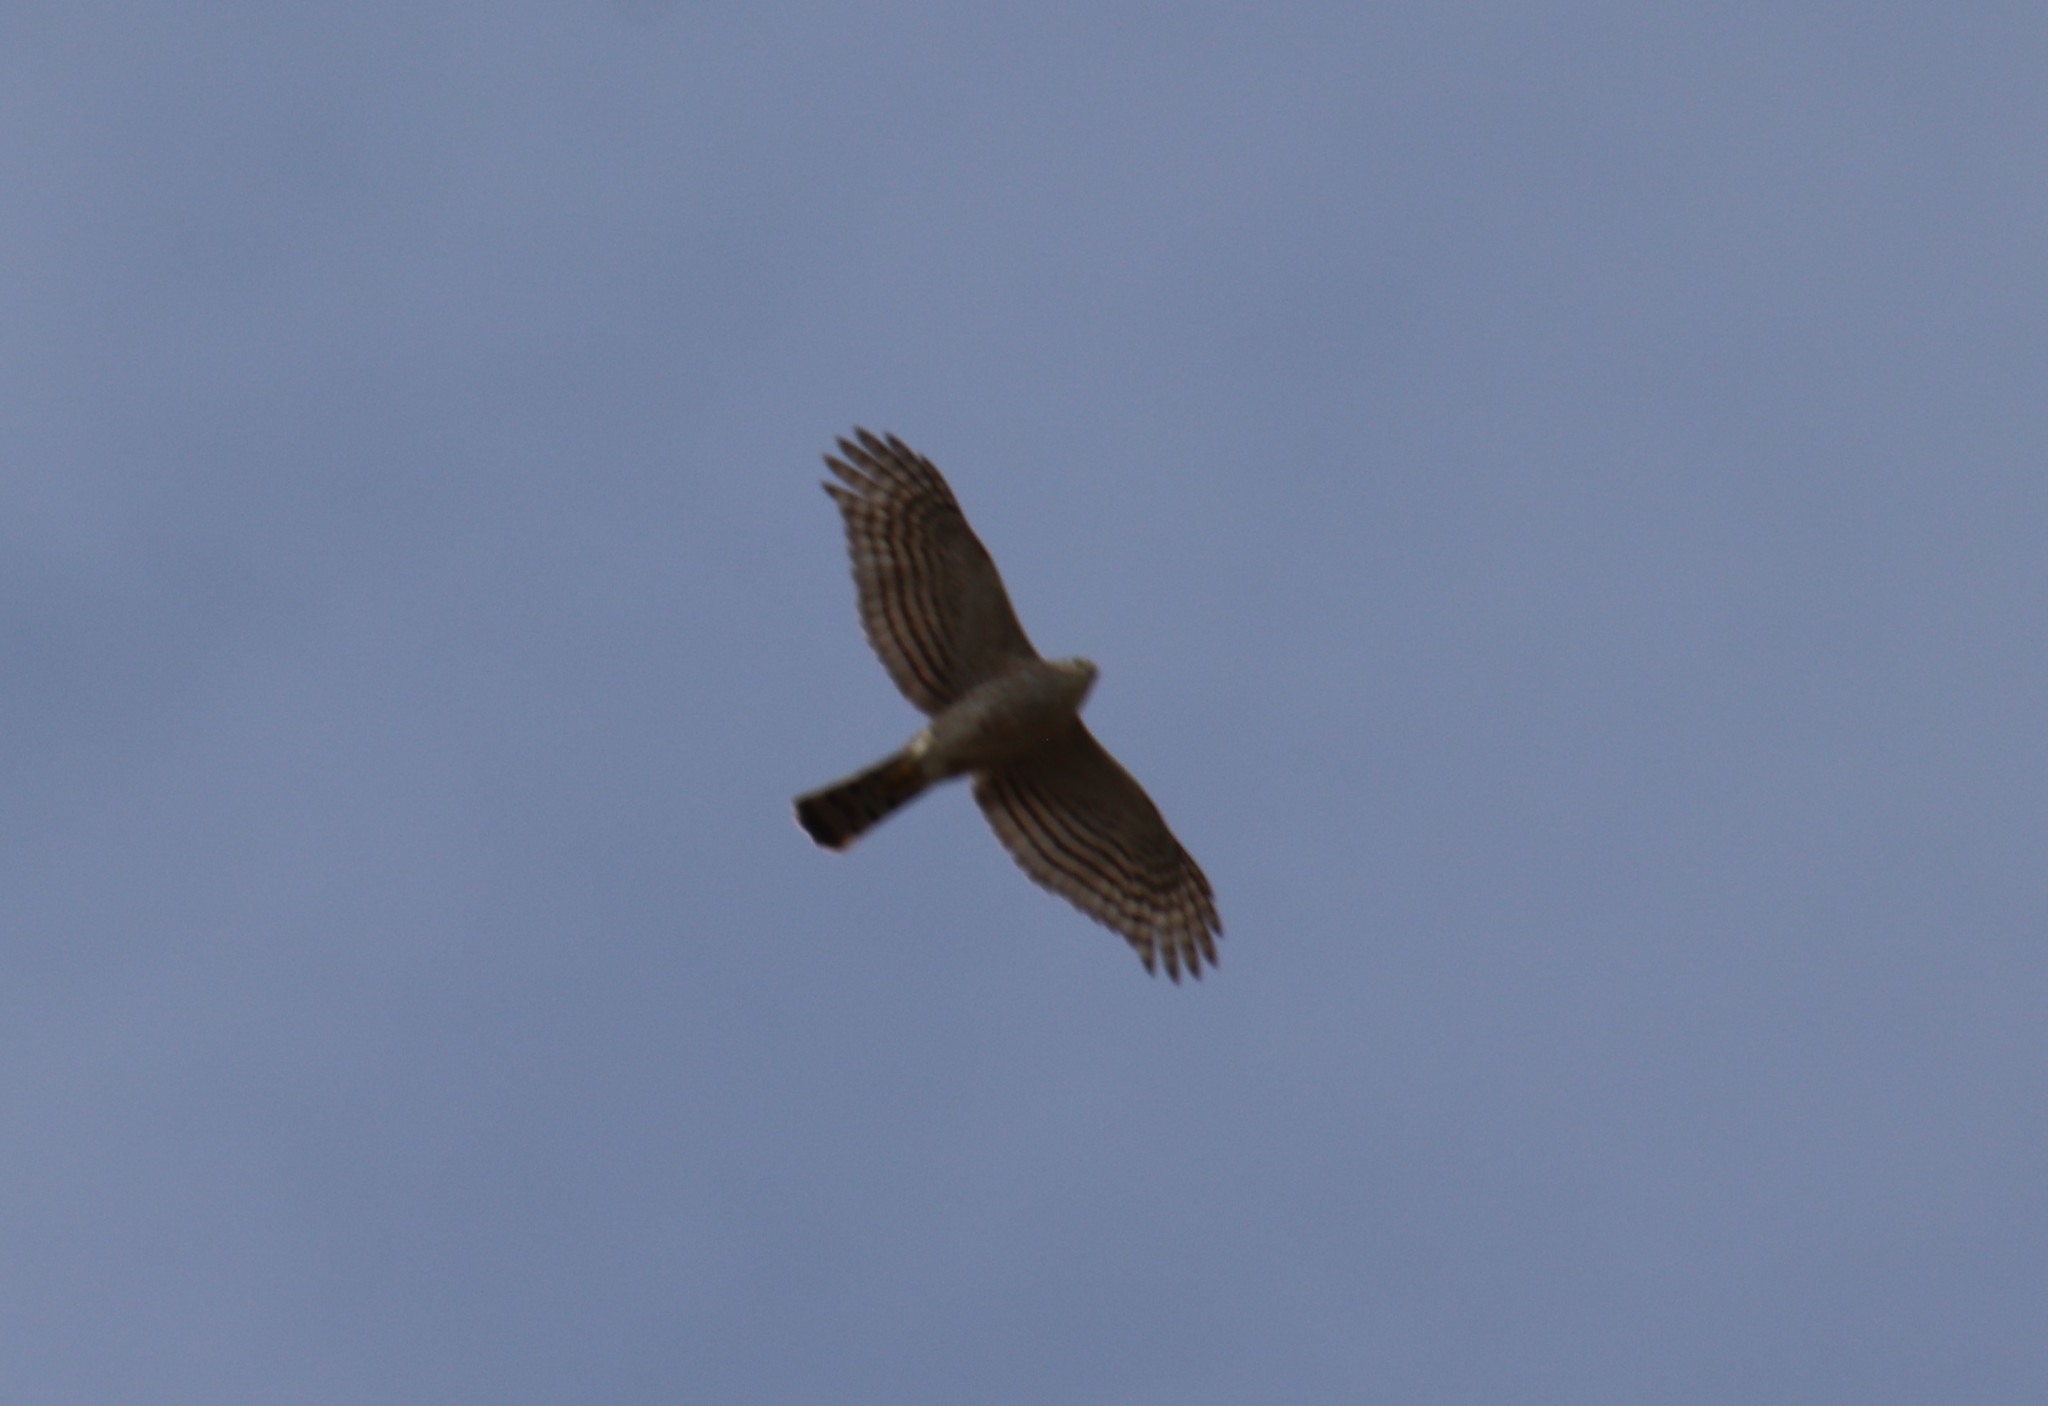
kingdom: Animalia
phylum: Chordata
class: Aves
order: Accipitriformes
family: Accipitridae
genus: Accipiter
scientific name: Accipiter cooperii
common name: Cooper's hawk
